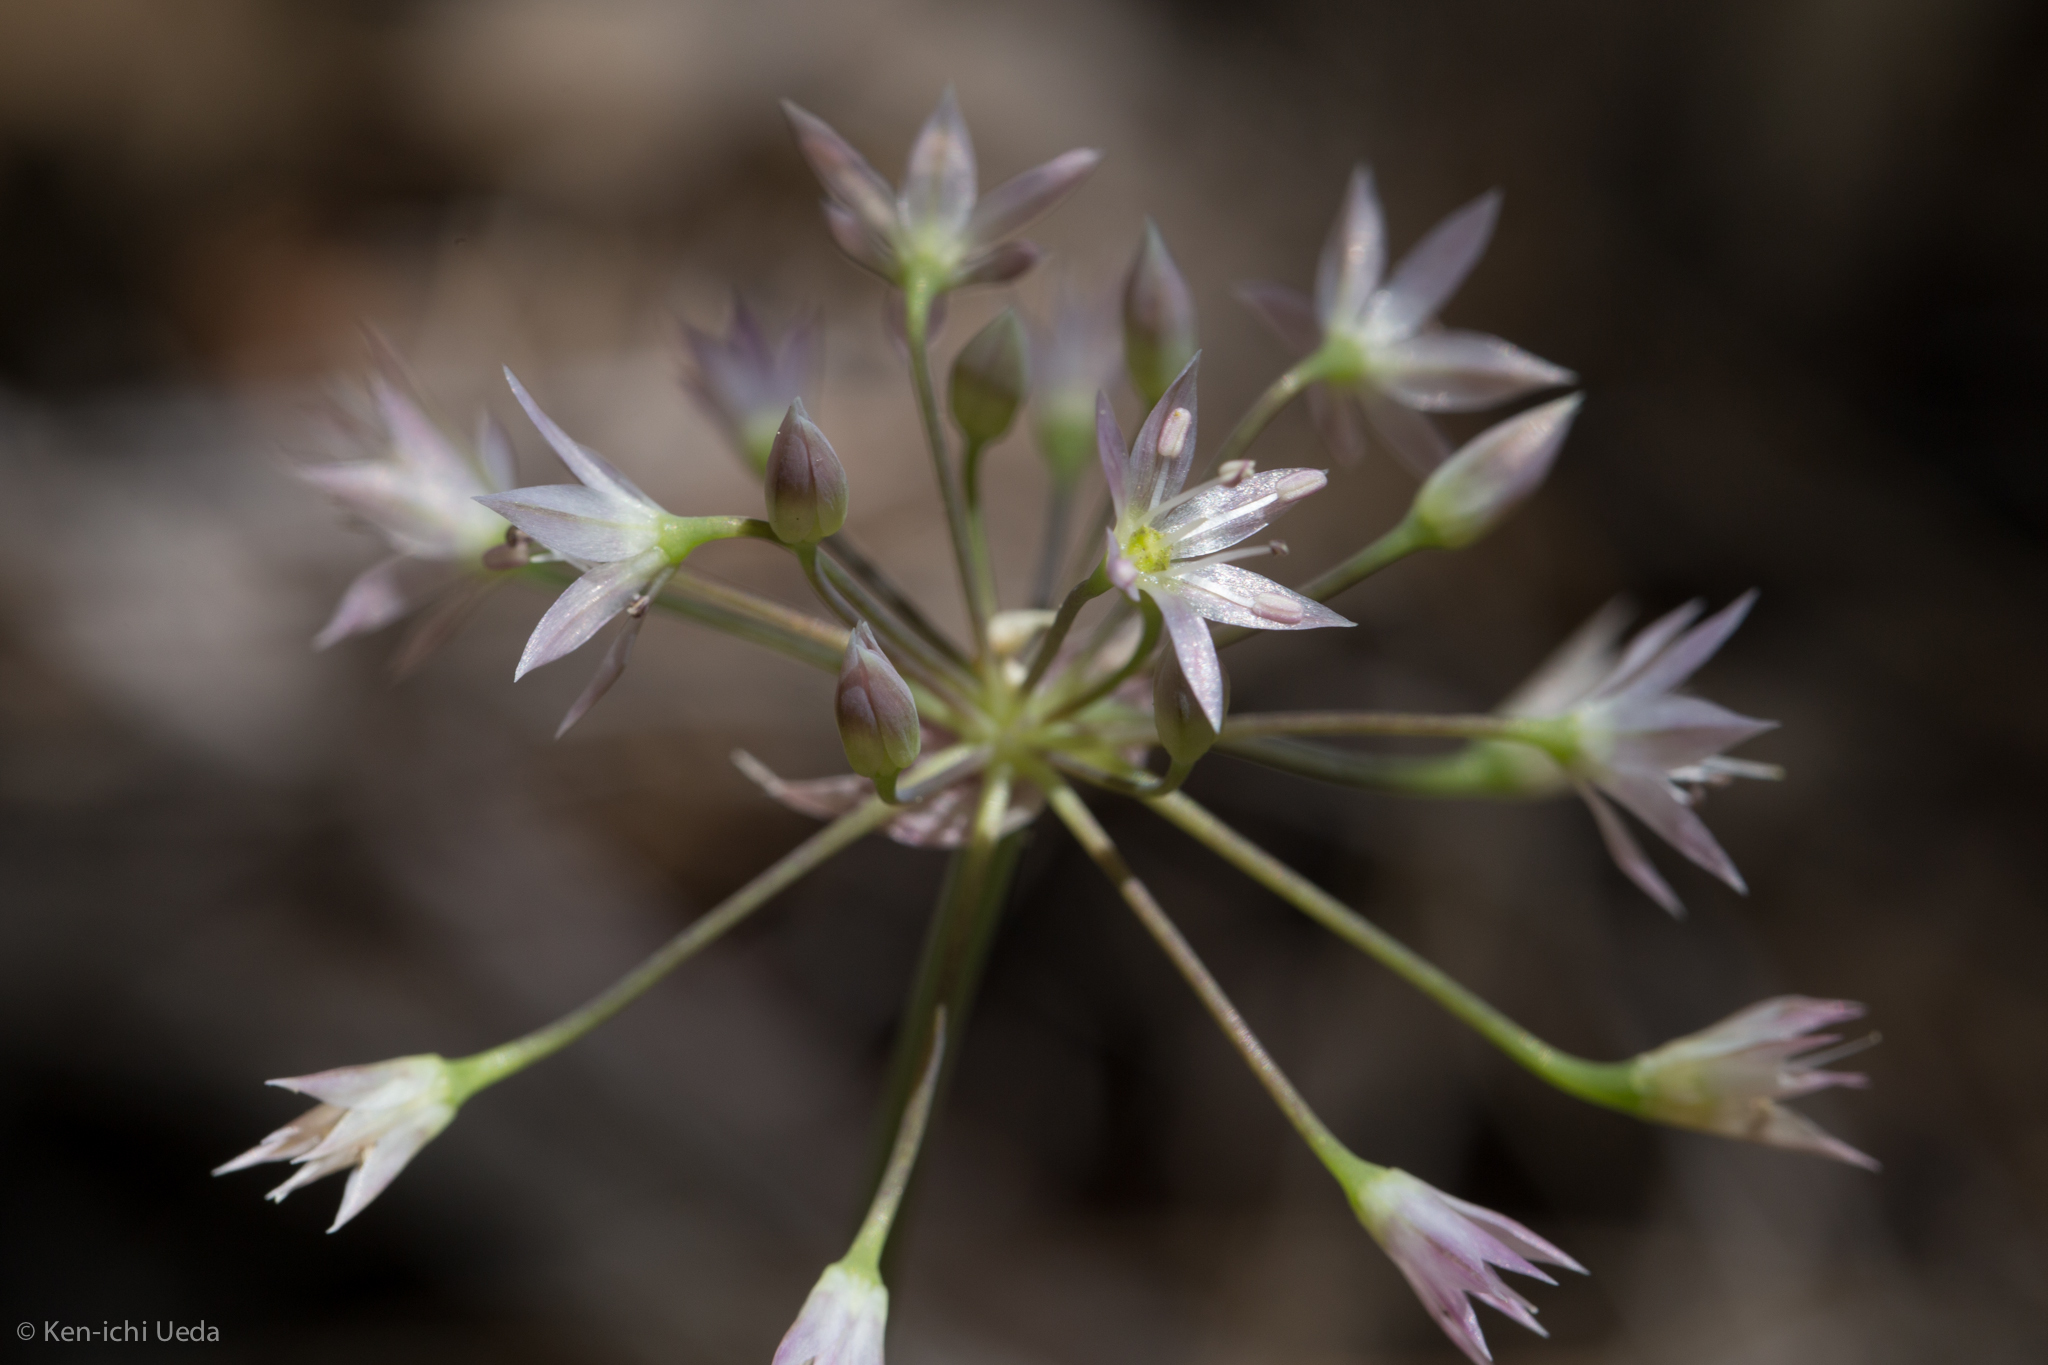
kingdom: Plantae
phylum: Tracheophyta
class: Liliopsida
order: Asparagales
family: Amaryllidaceae
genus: Allium
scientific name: Allium campanulatum
